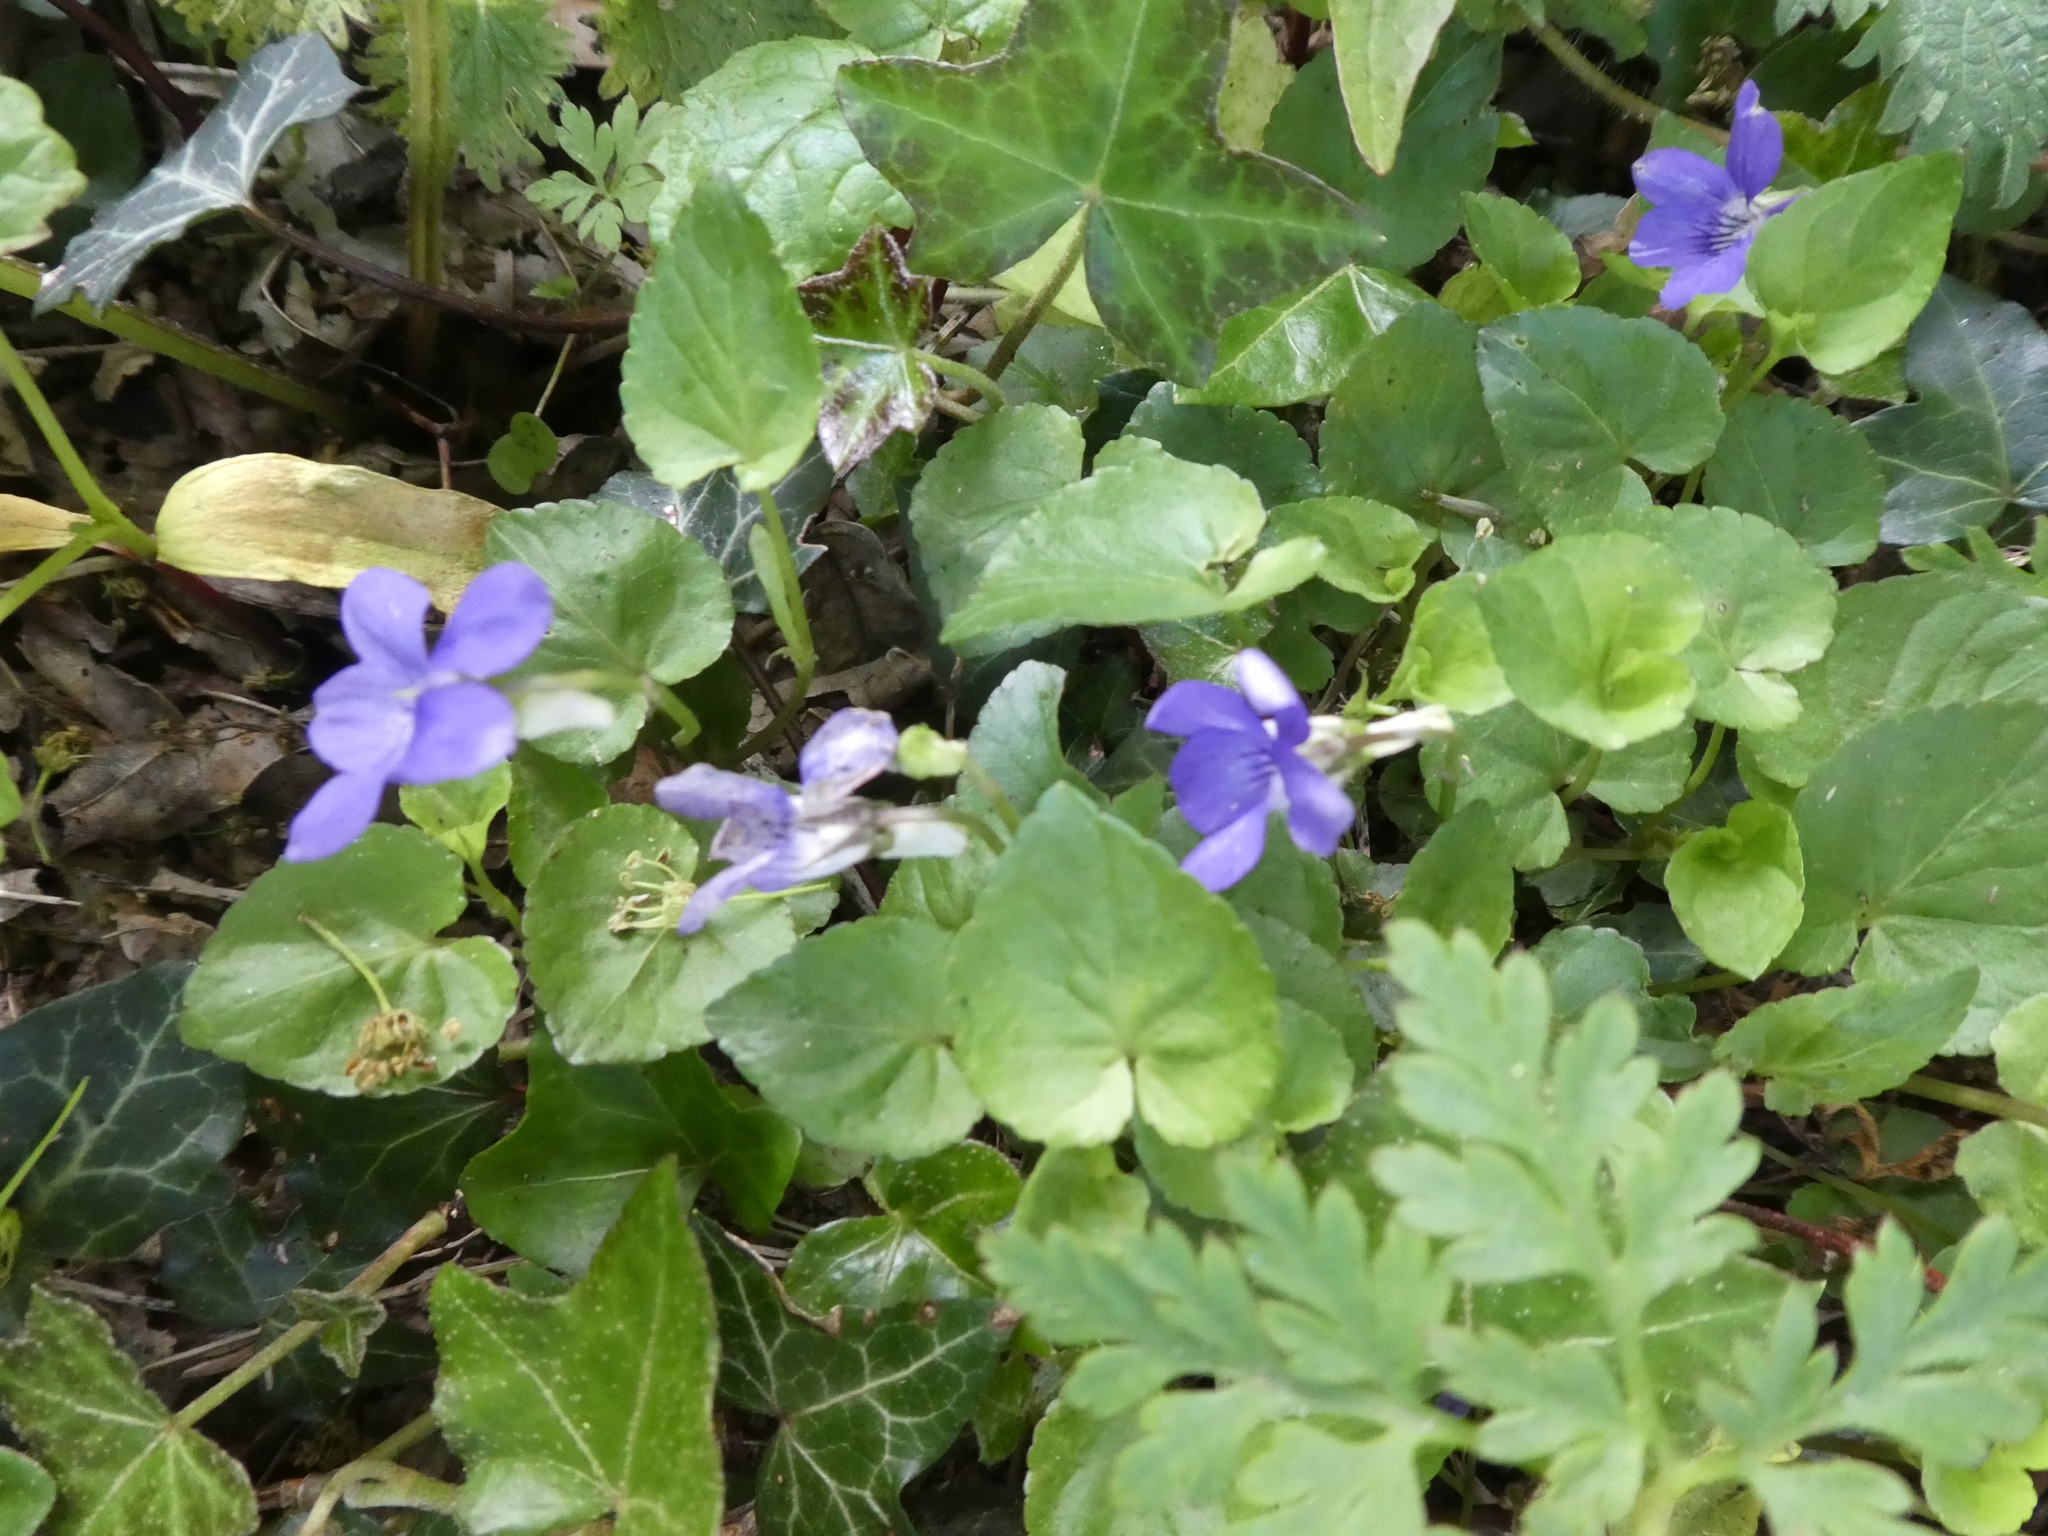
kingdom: Plantae
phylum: Tracheophyta
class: Magnoliopsida
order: Malpighiales
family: Violaceae
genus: Viola
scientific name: Viola riviniana
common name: Common dog-violet
